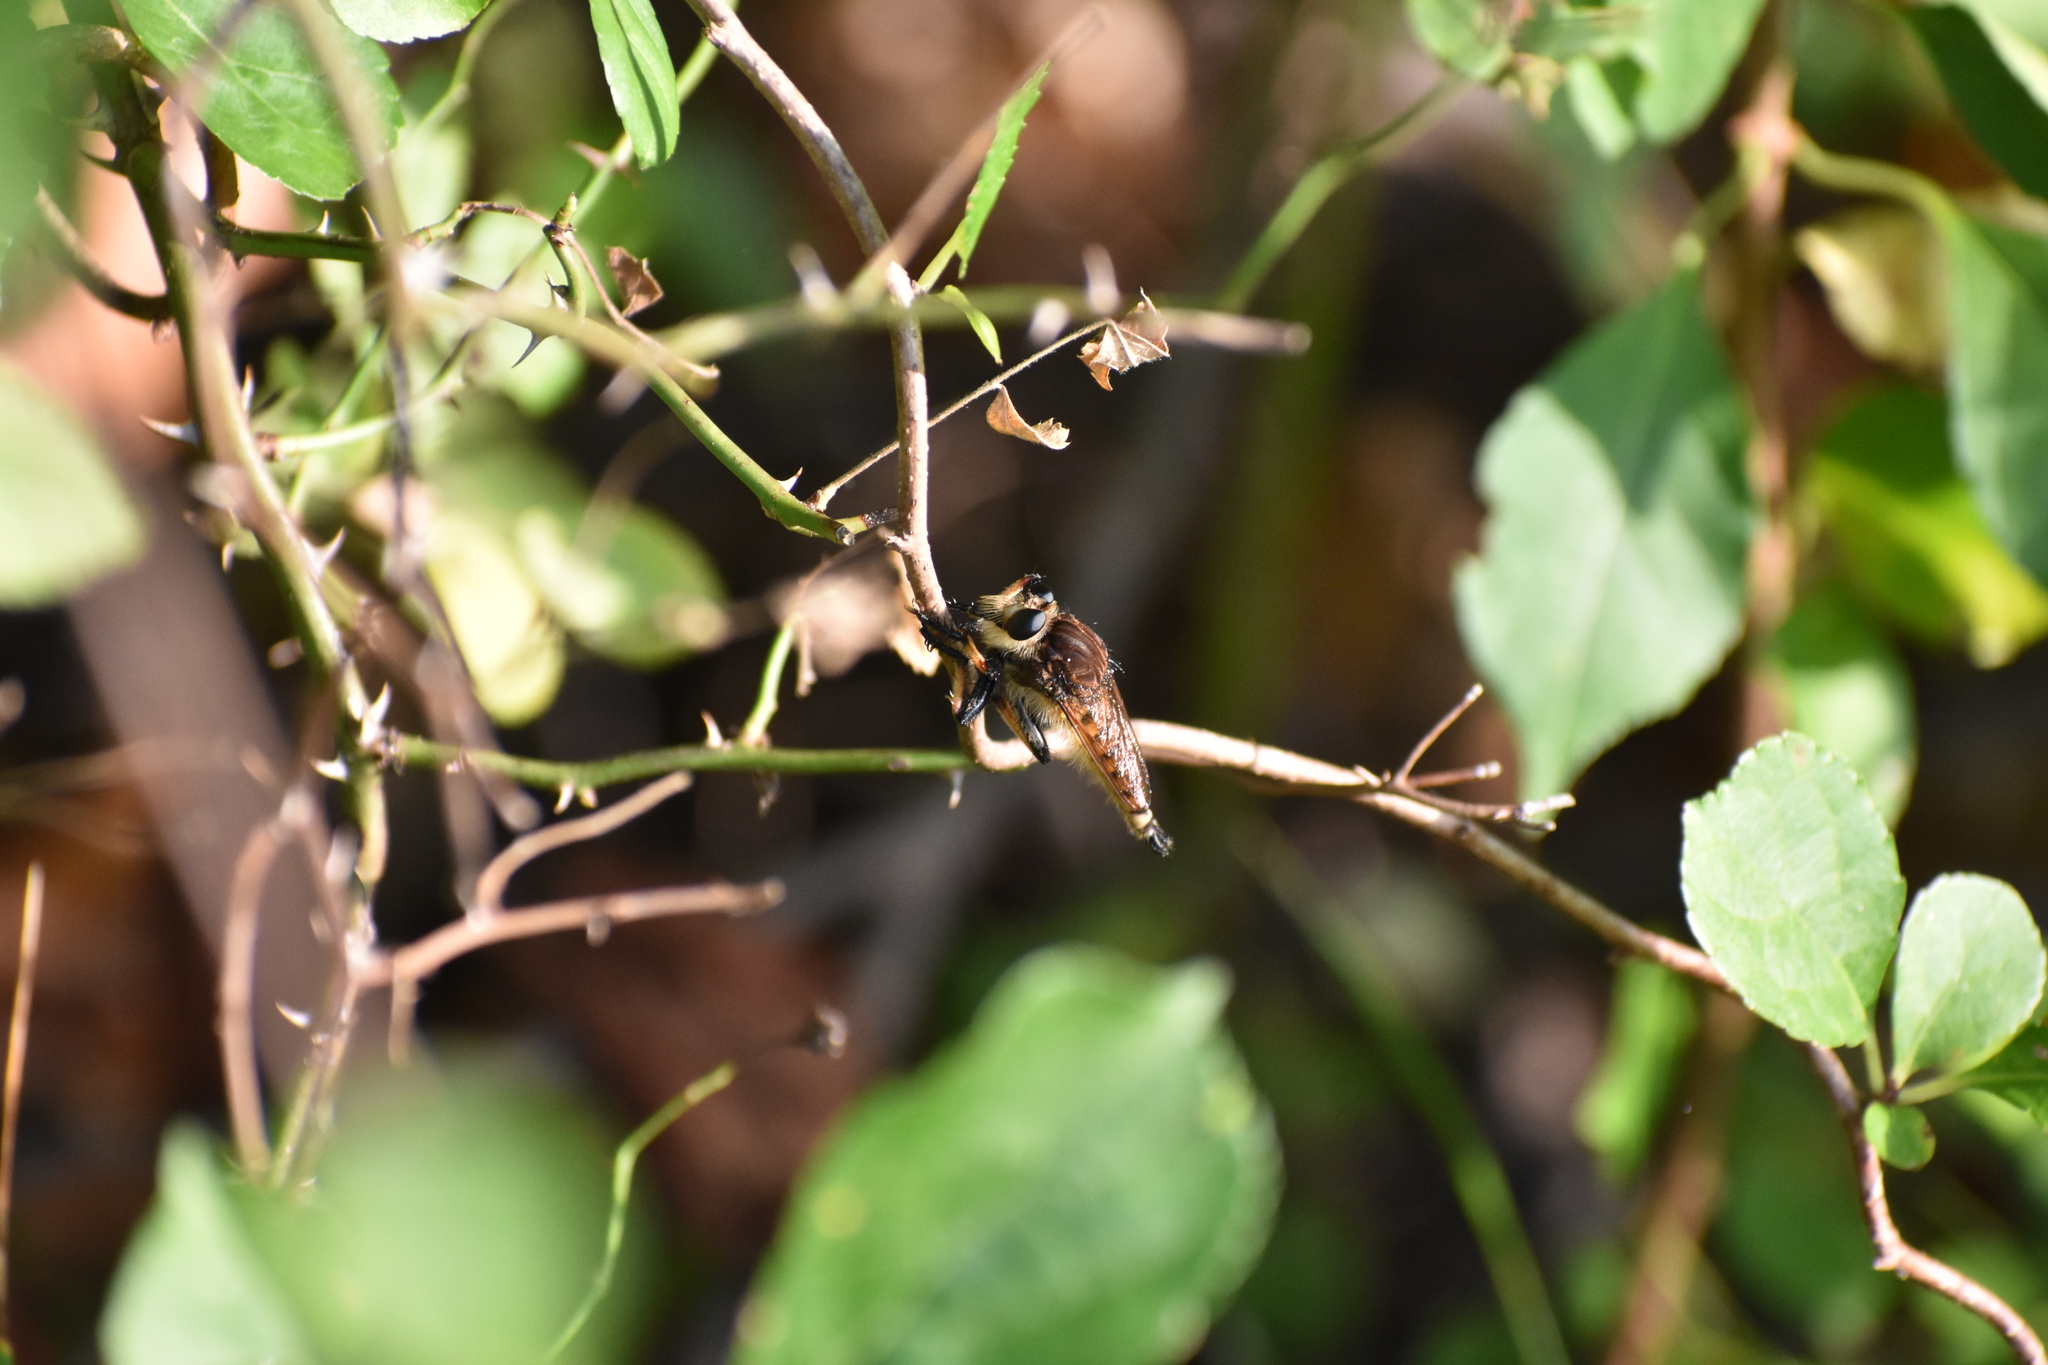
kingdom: Animalia
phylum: Arthropoda
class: Insecta
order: Diptera
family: Asilidae
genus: Promachus
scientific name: Promachus rufipes
